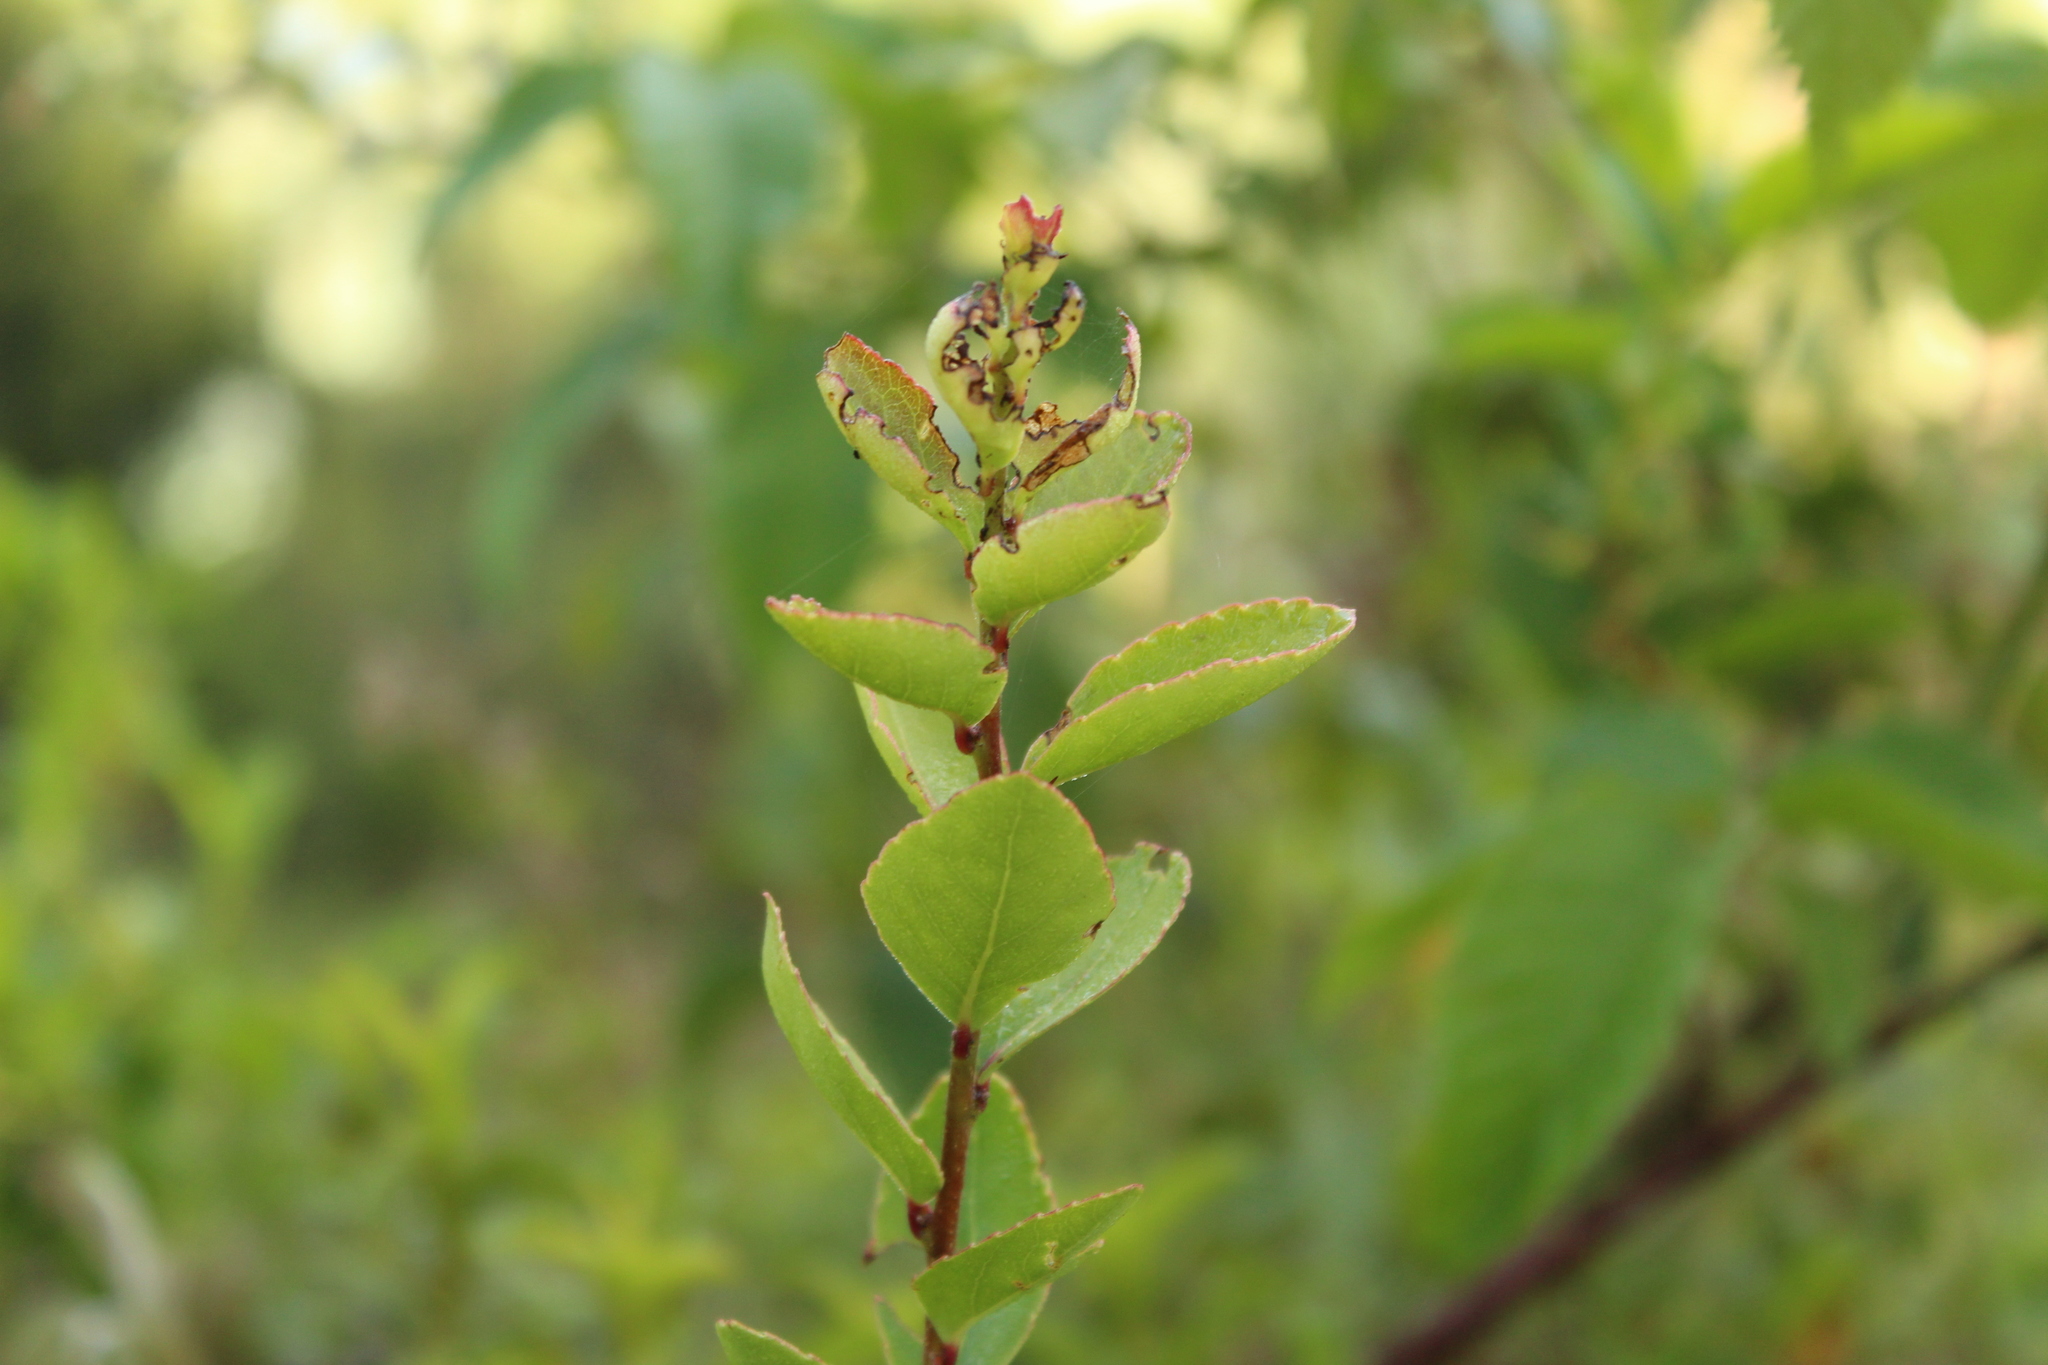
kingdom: Plantae
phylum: Tracheophyta
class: Magnoliopsida
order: Malpighiales
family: Salicaceae
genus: Xylosma
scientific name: Xylosma spiculifera
